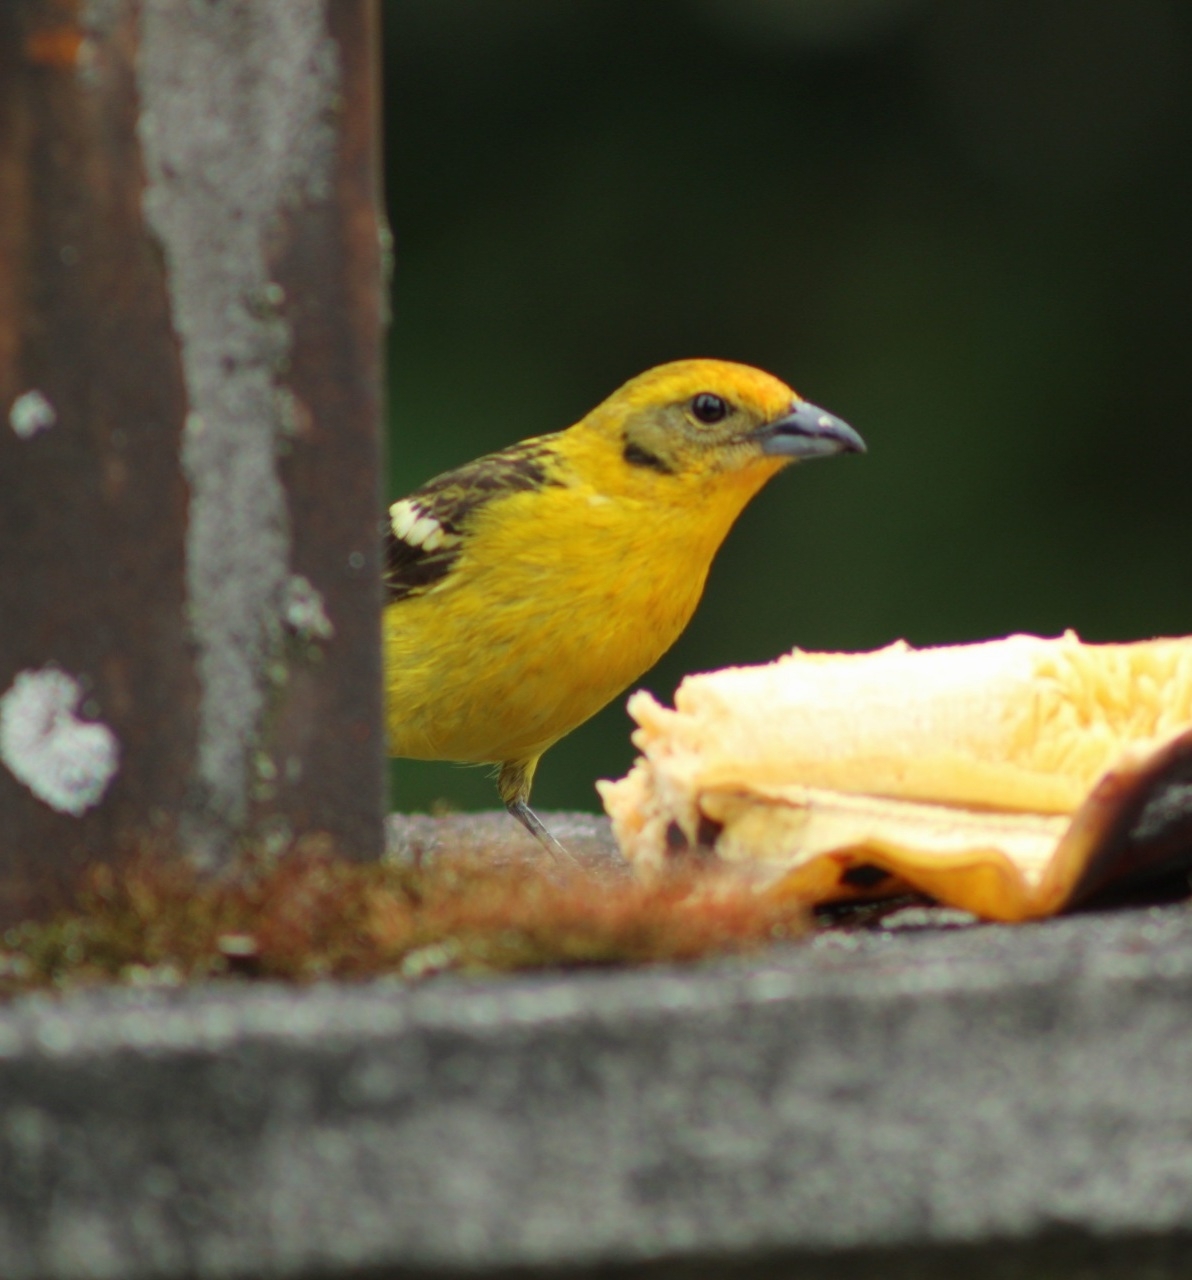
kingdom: Animalia
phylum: Chordata
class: Aves
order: Passeriformes
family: Cardinalidae
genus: Piranga
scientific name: Piranga bidentata
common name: Flame-colored tanager
